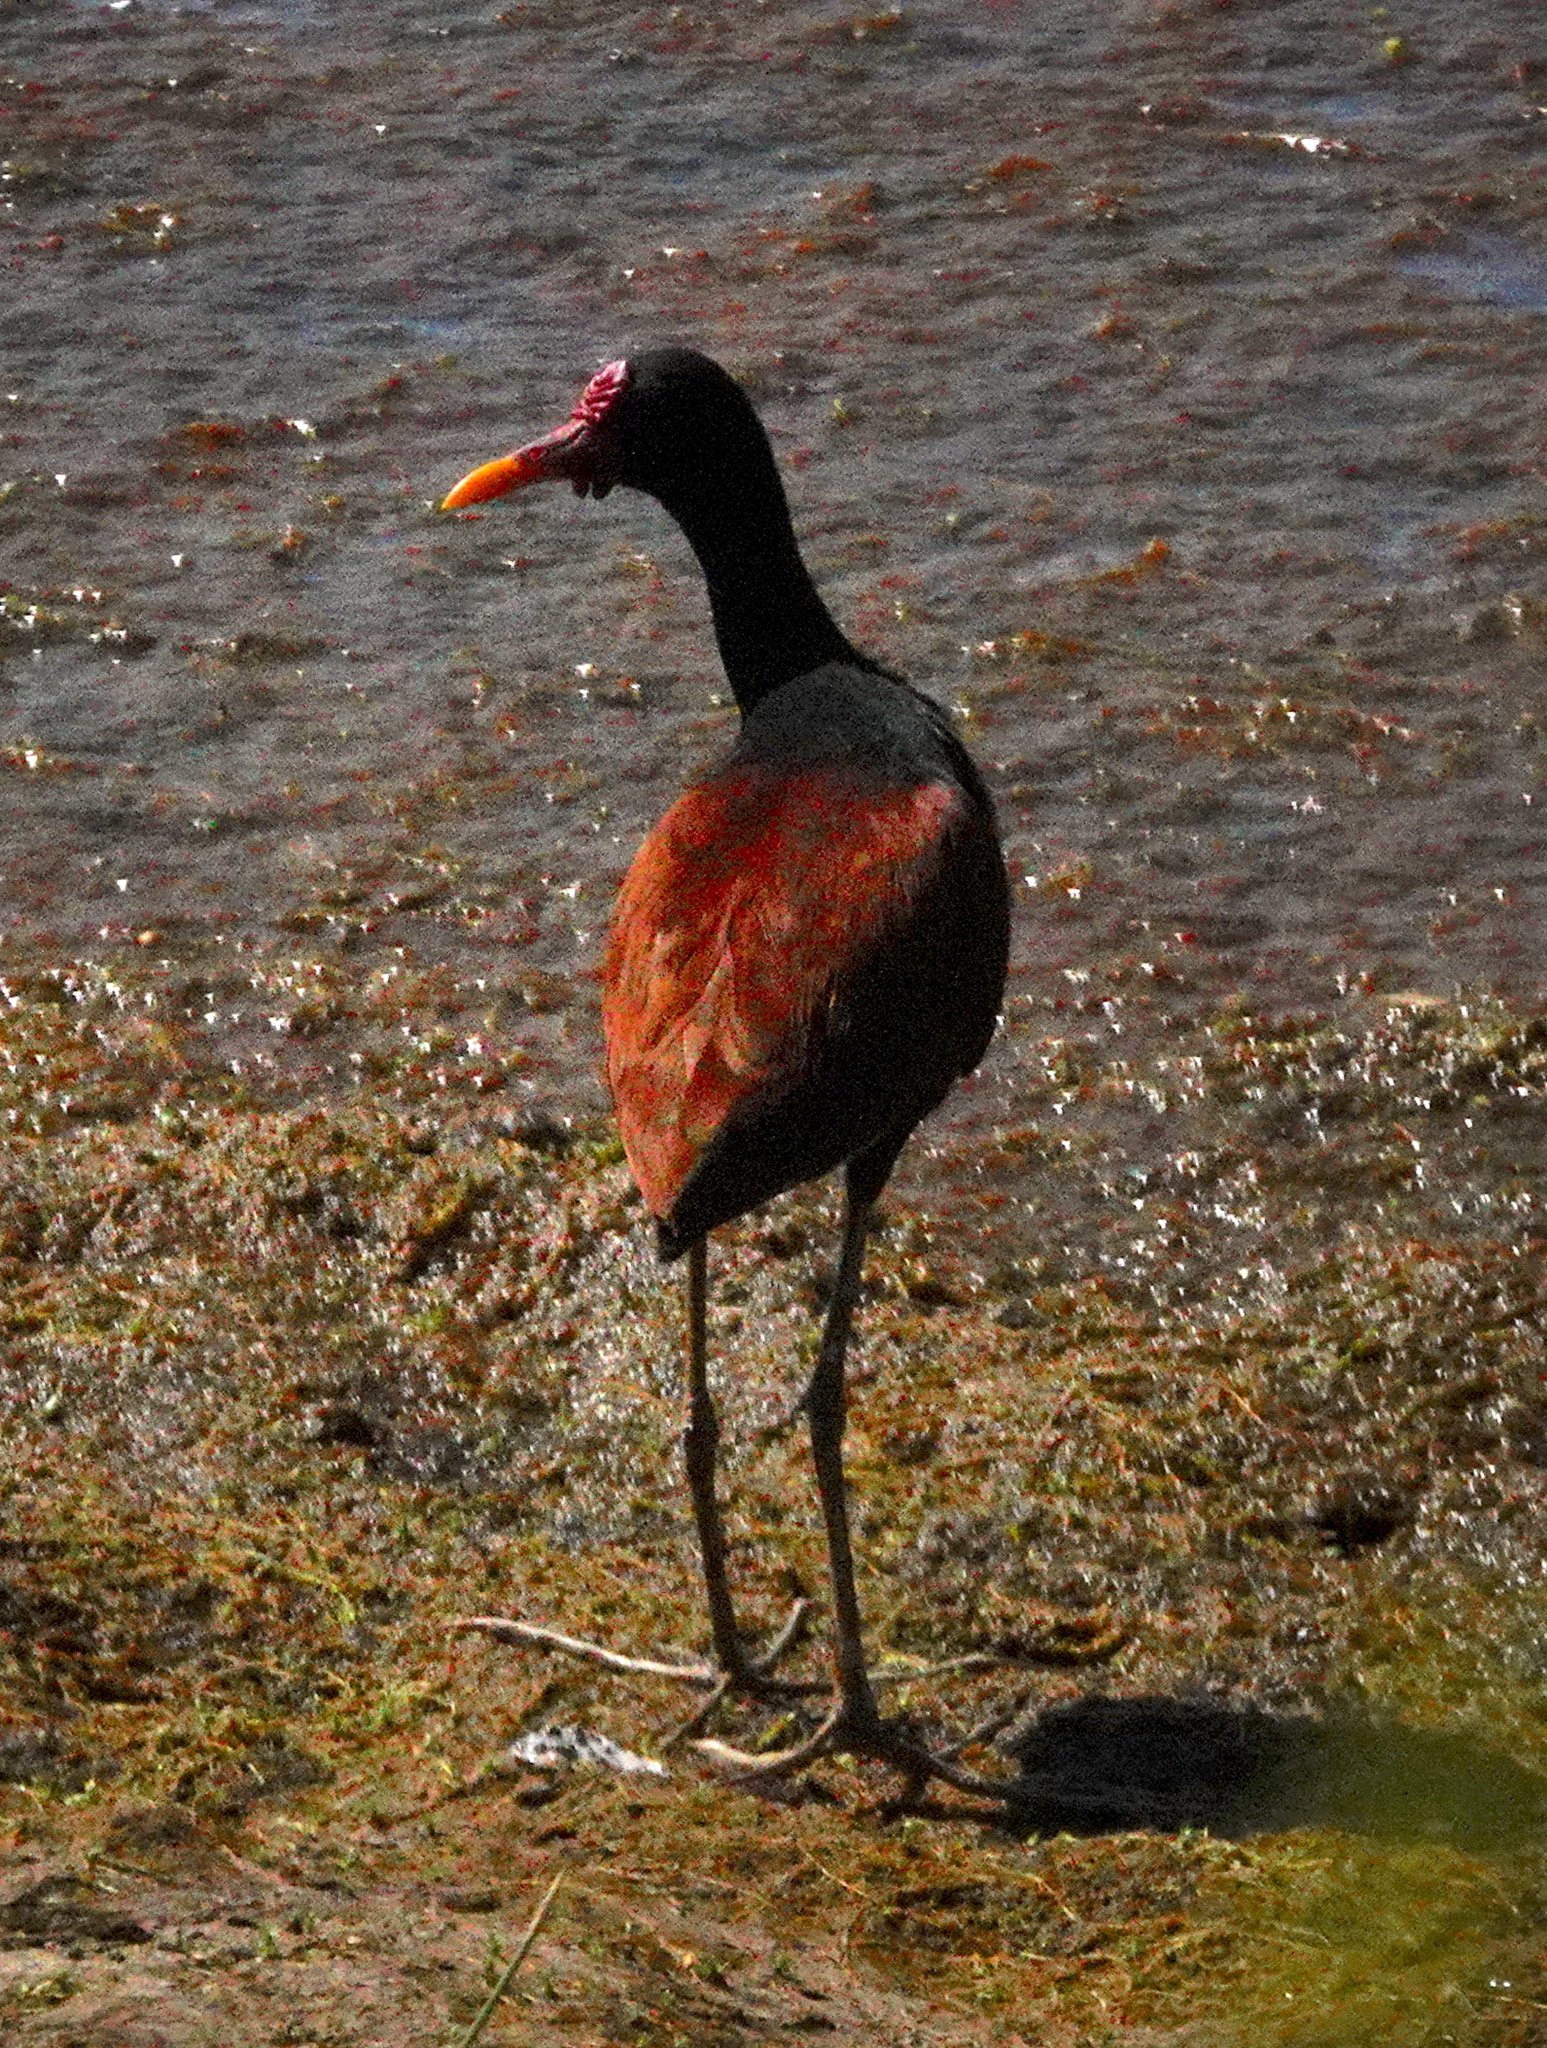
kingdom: Animalia
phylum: Chordata
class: Aves
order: Charadriiformes
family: Jacanidae
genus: Jacana
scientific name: Jacana jacana
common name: Wattled jacana
